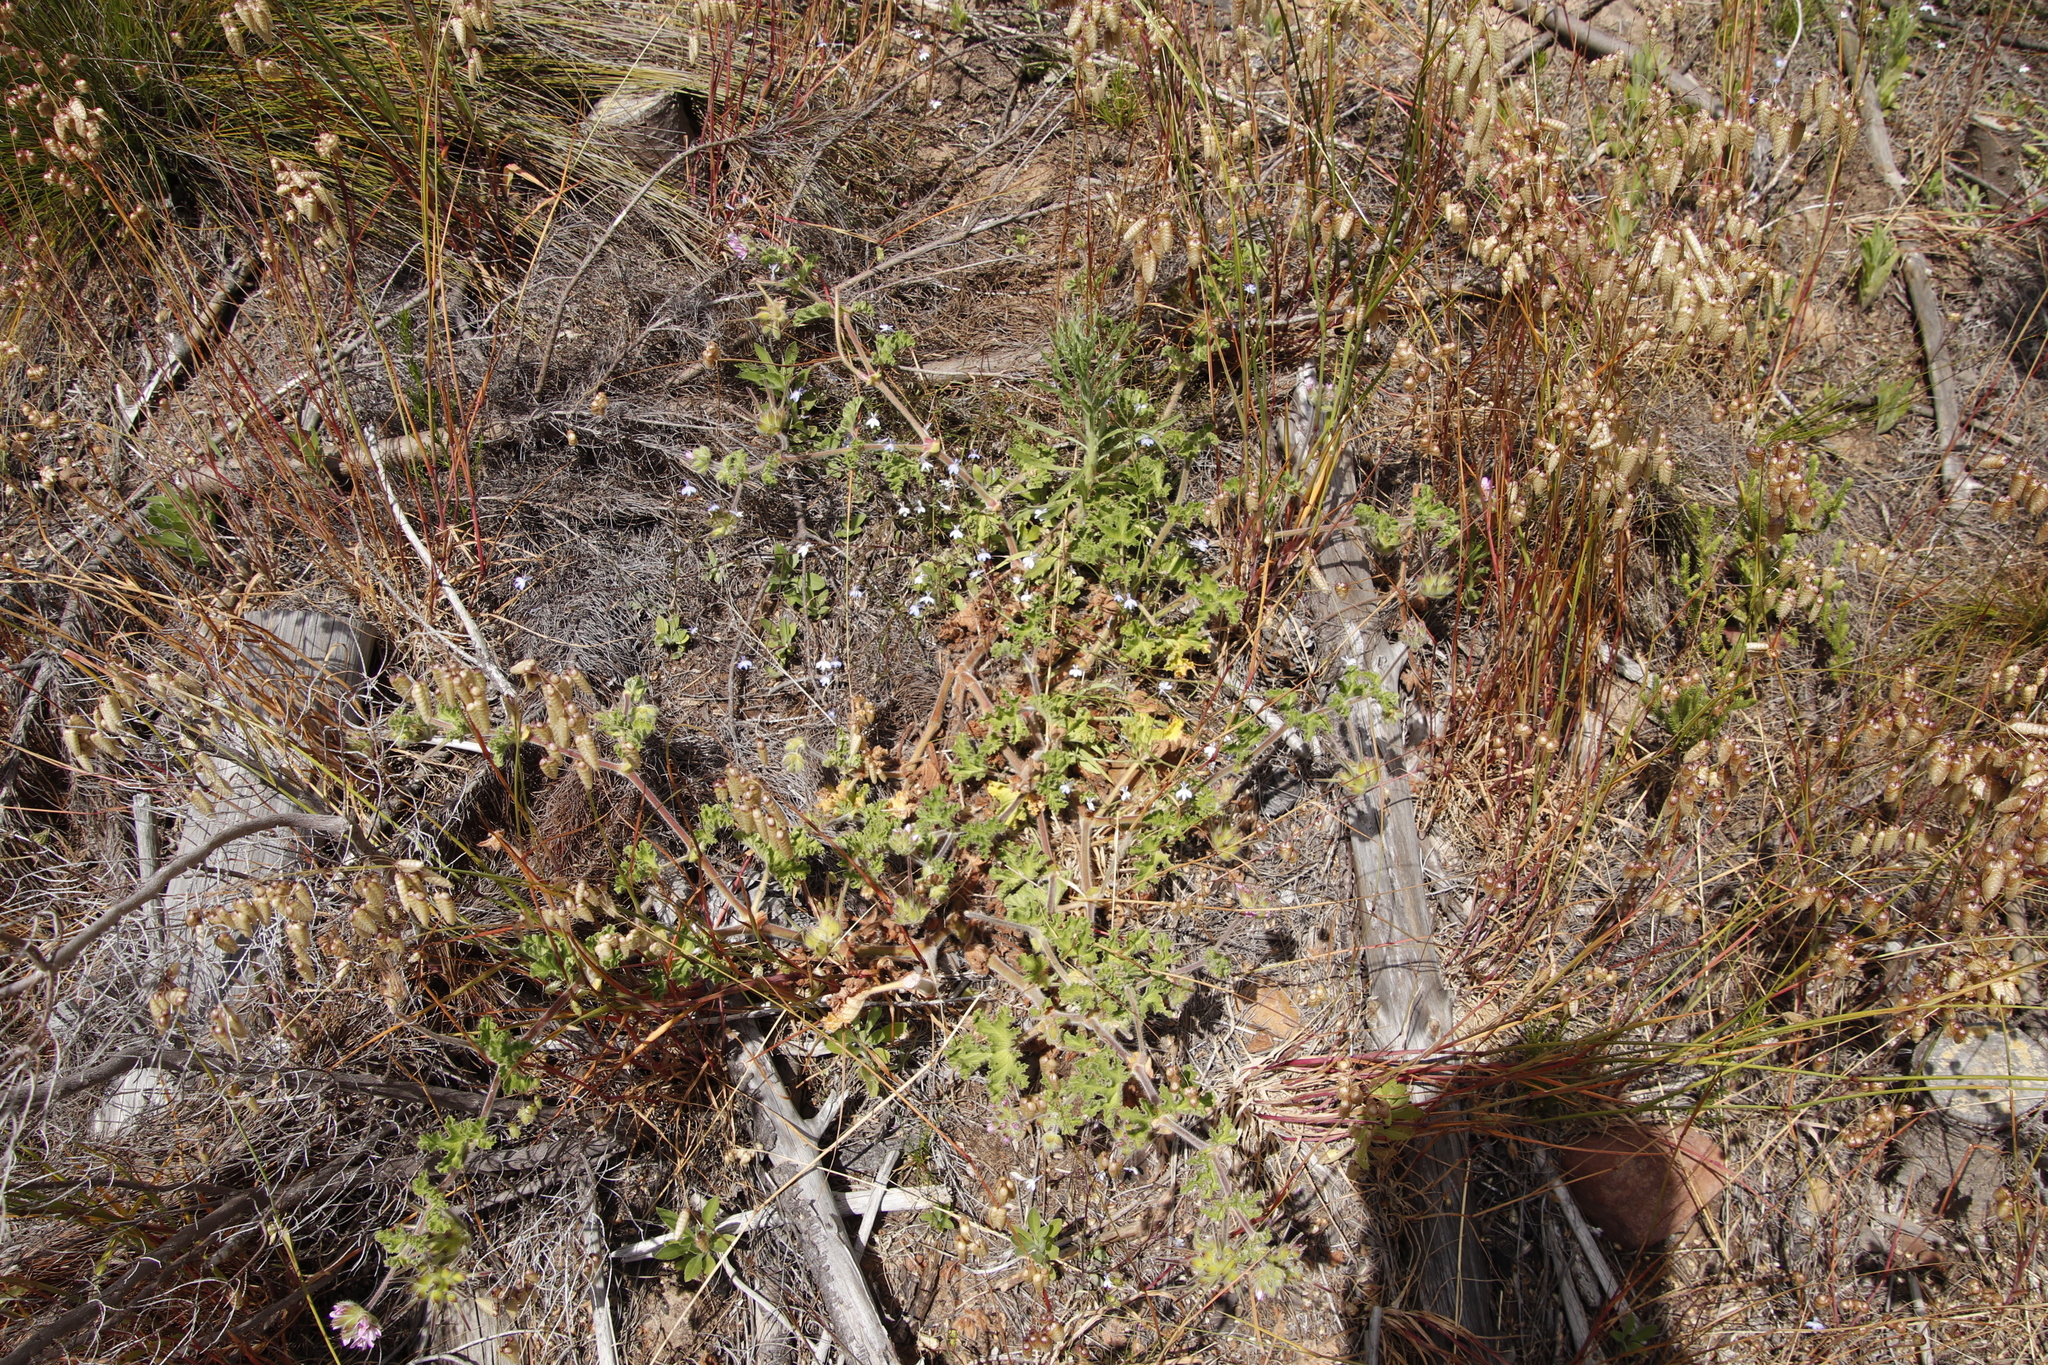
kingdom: Plantae
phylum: Tracheophyta
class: Magnoliopsida
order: Asterales
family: Campanulaceae
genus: Lobelia
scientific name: Lobelia erinus
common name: Edging lobelia
